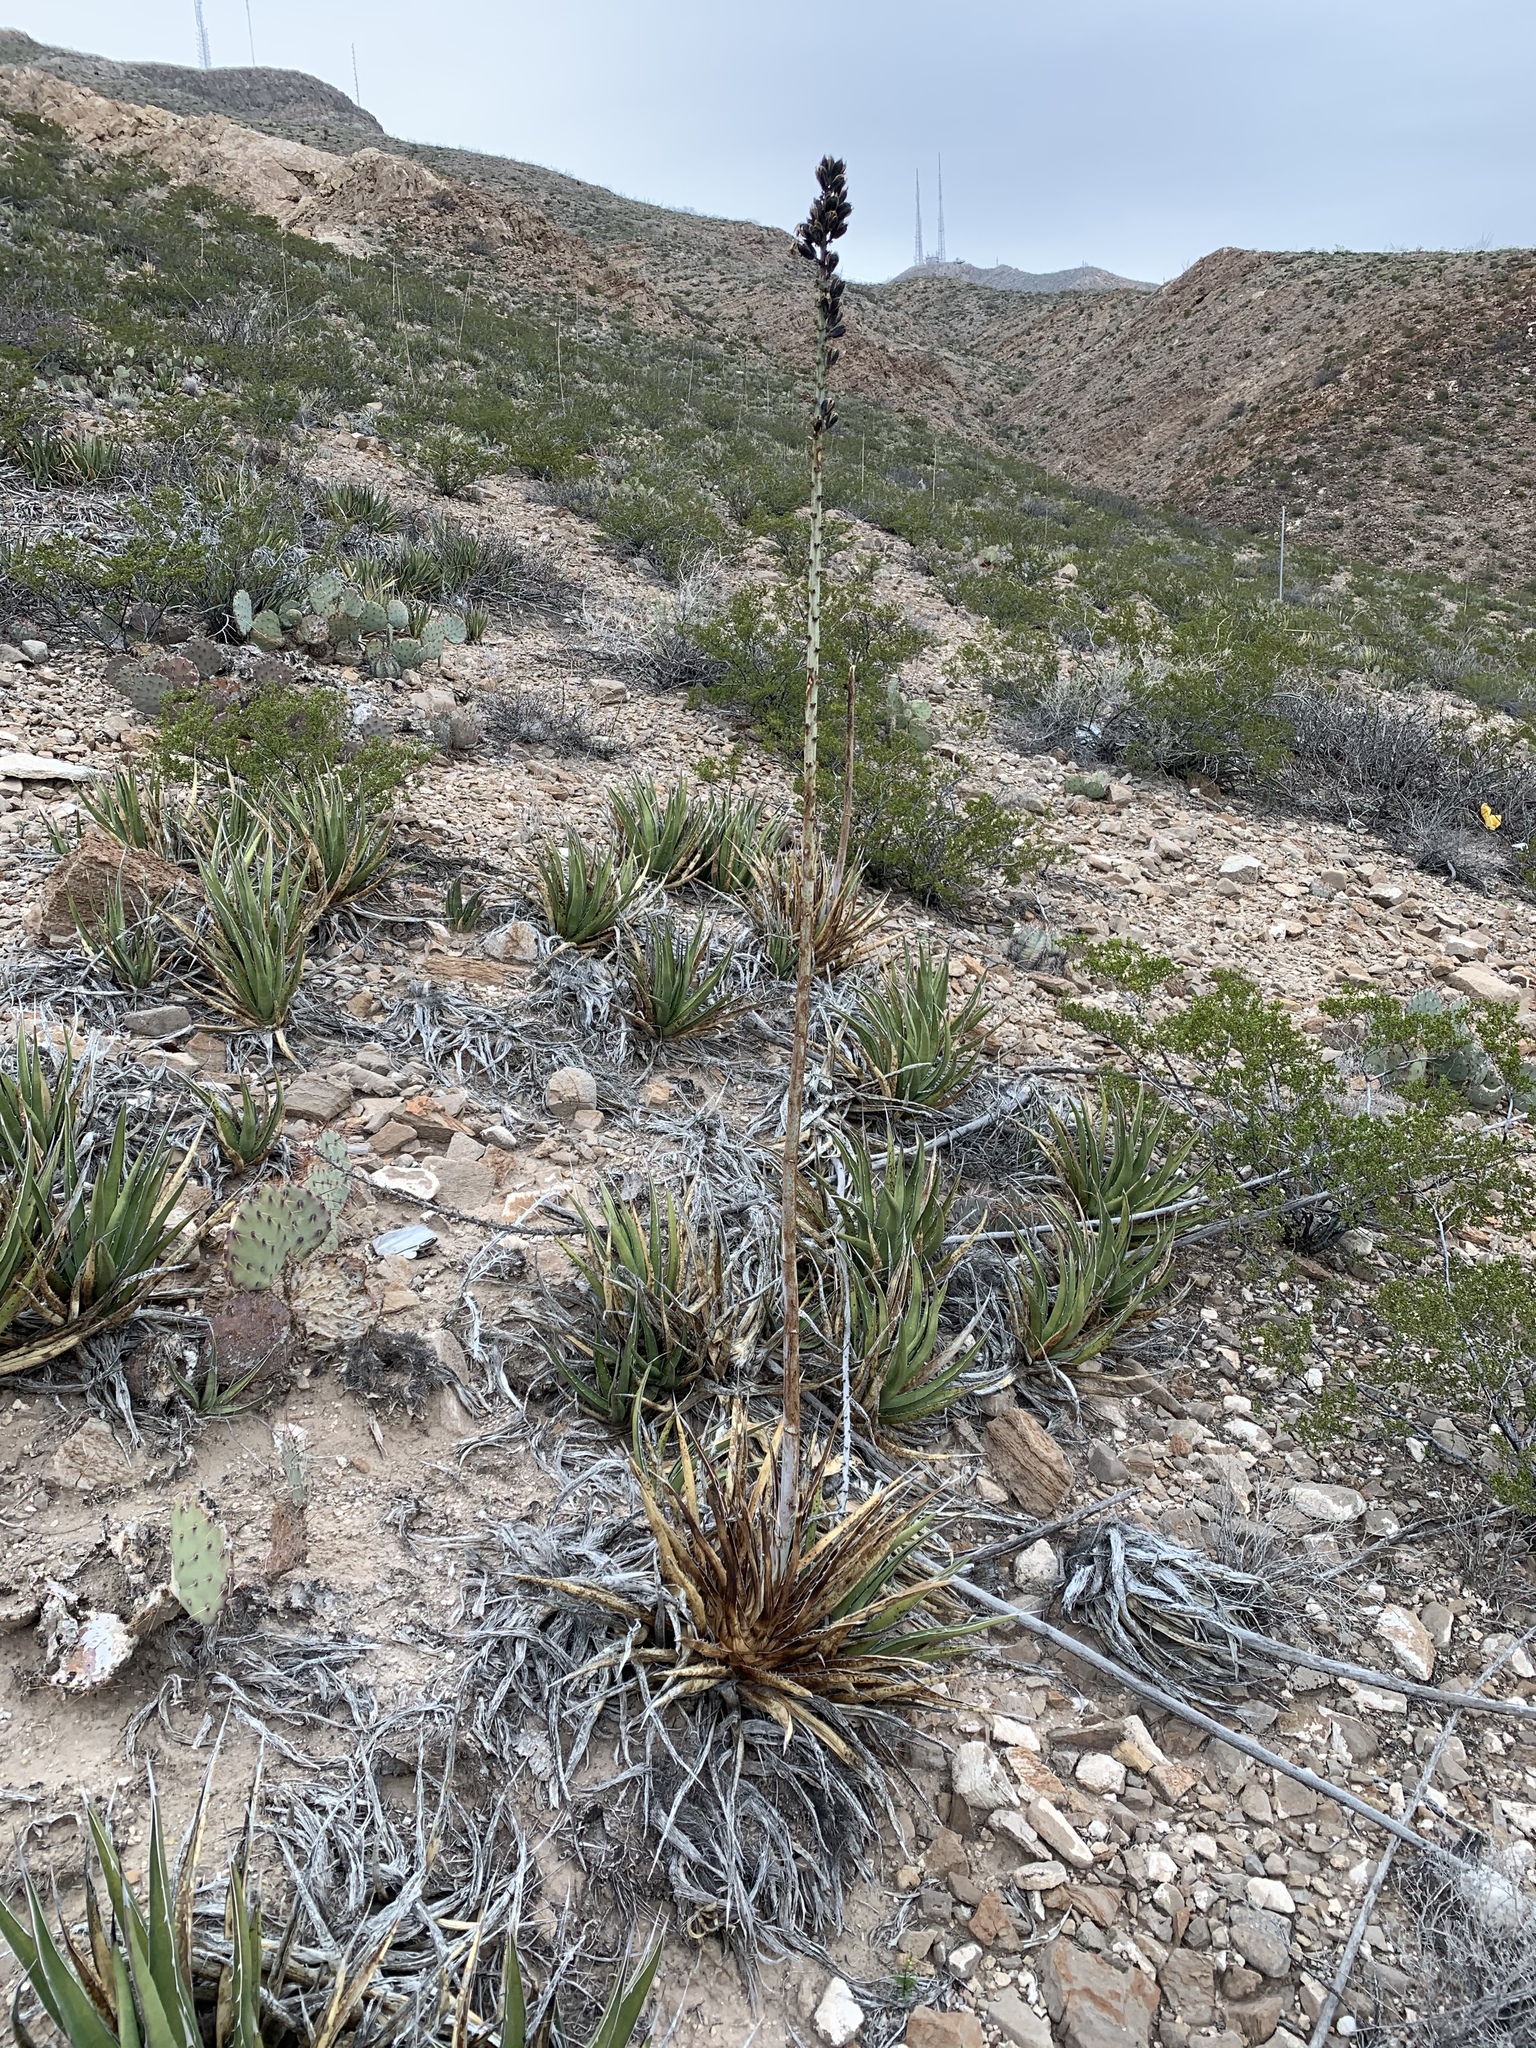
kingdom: Plantae
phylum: Tracheophyta
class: Liliopsida
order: Asparagales
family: Asparagaceae
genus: Agave
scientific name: Agave lechuguilla
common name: Lecheguilla agave
